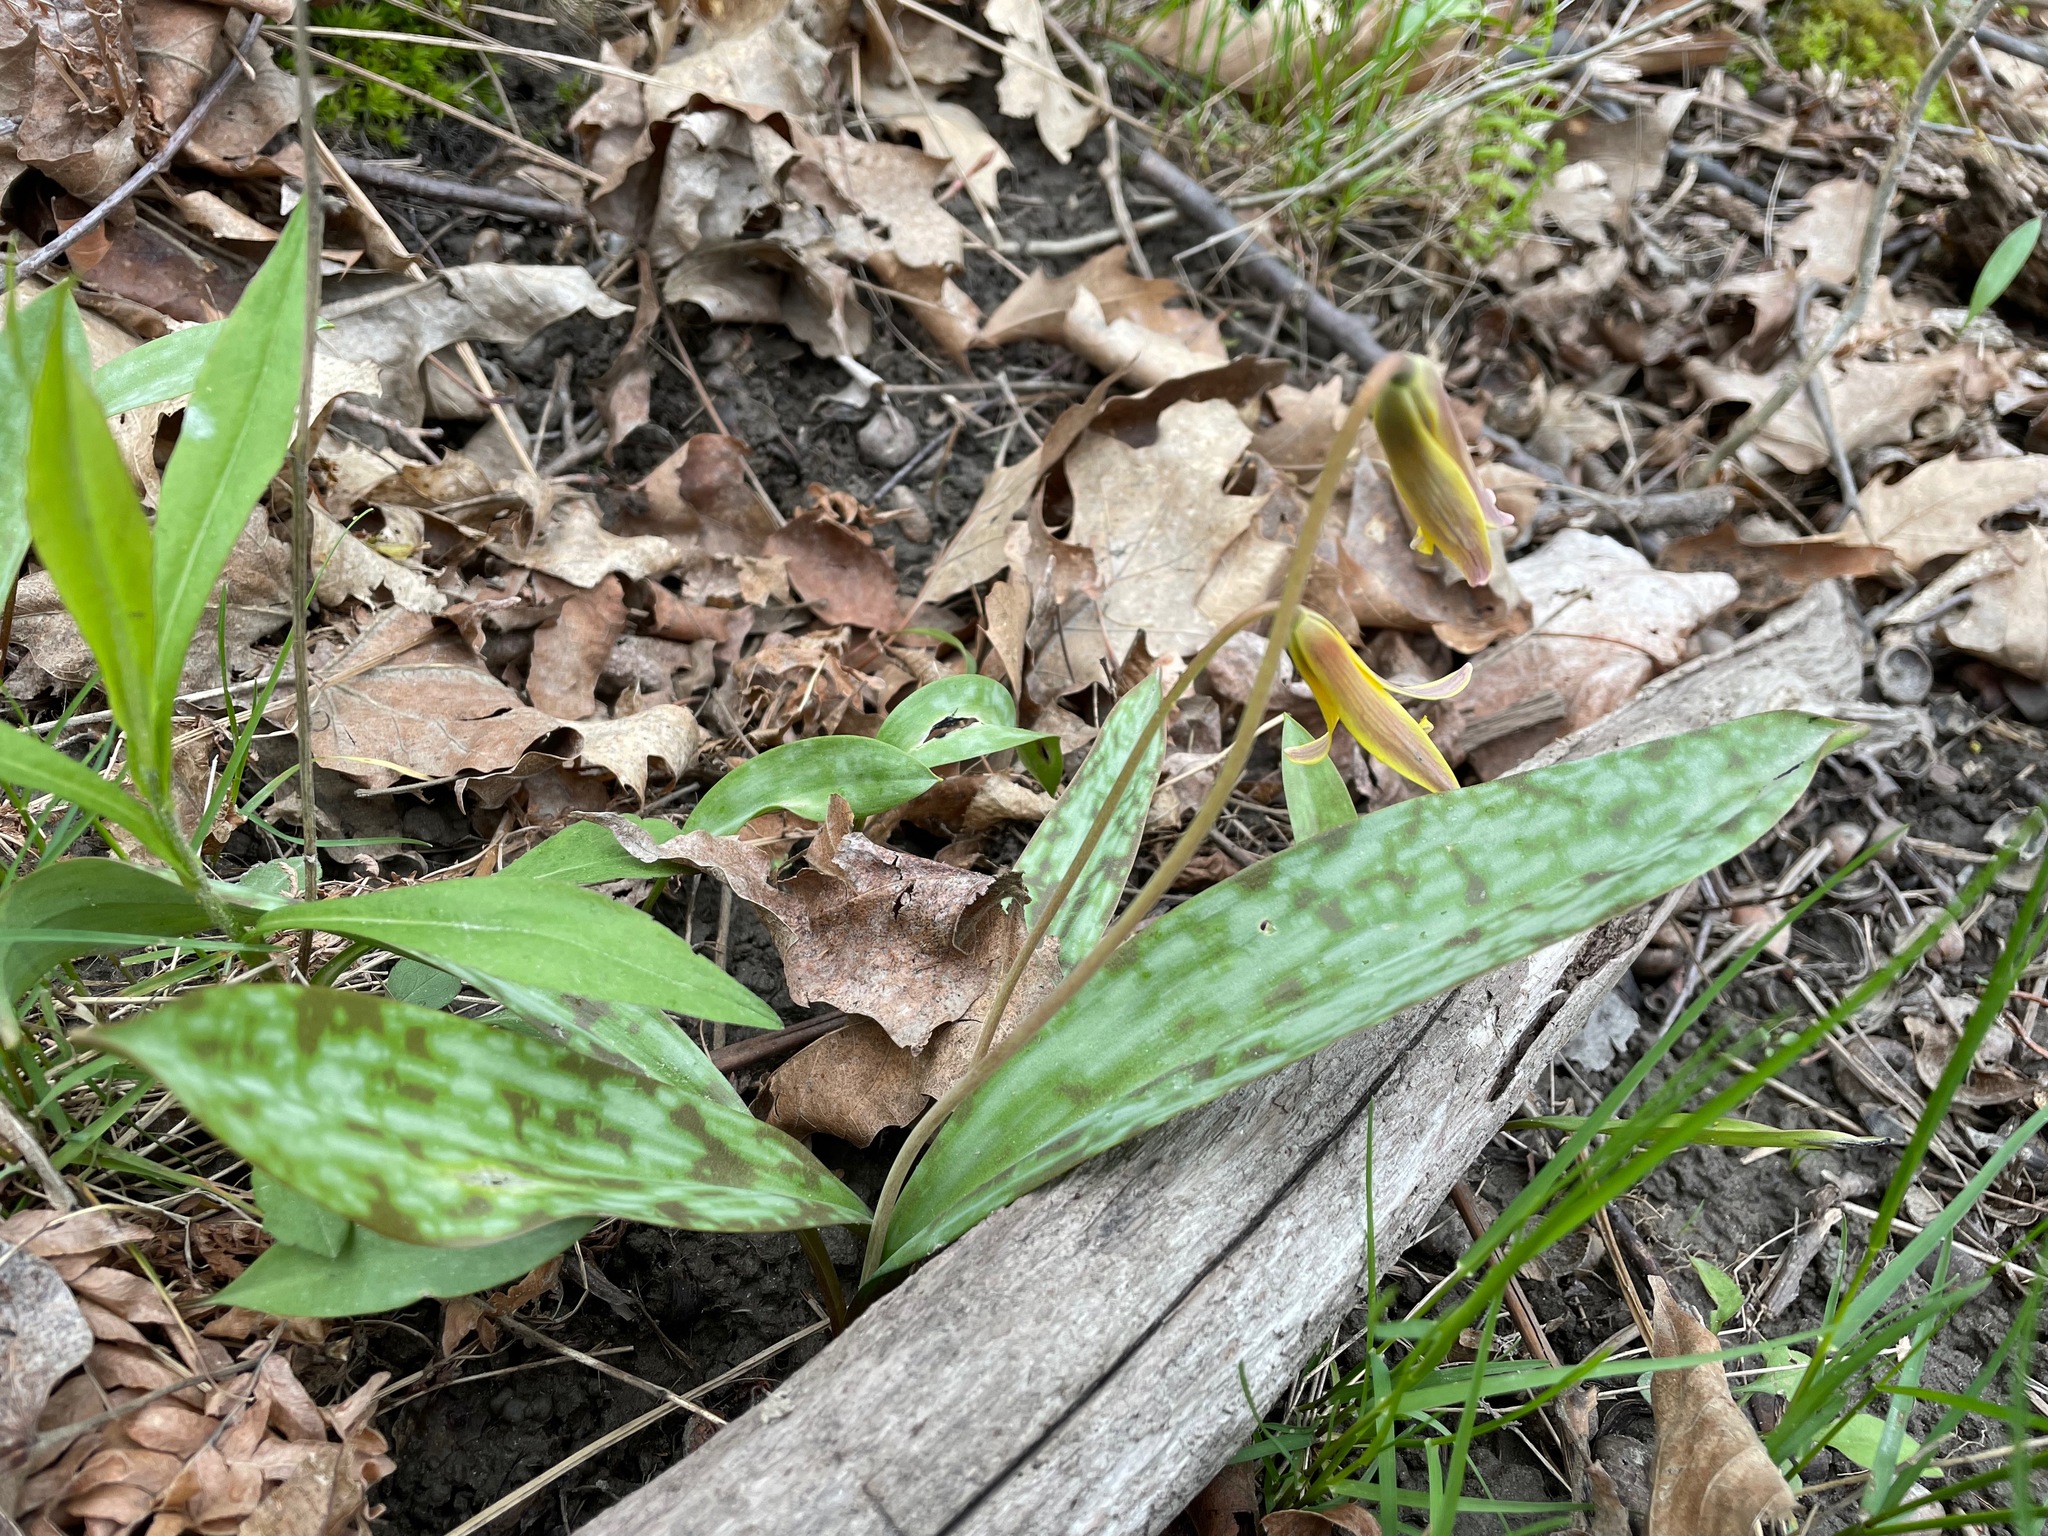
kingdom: Plantae
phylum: Tracheophyta
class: Liliopsida
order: Liliales
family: Liliaceae
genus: Erythronium
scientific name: Erythronium americanum
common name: Yellow adder's-tongue
